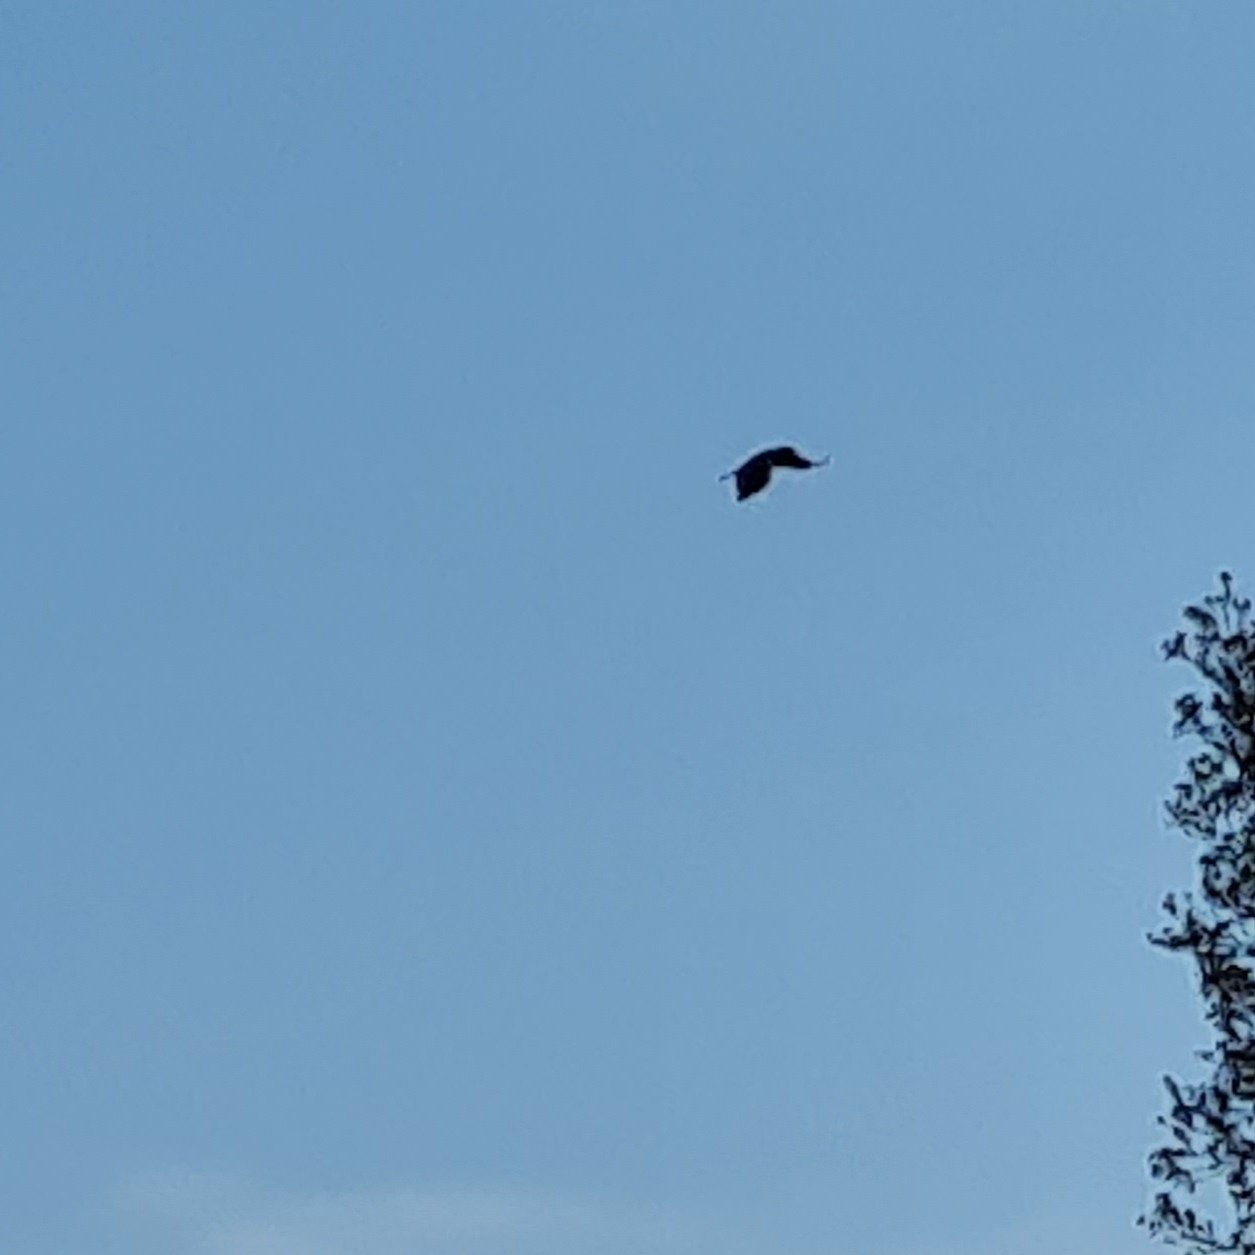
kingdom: Animalia
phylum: Chordata
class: Aves
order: Passeriformes
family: Corvidae
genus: Corvus
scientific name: Corvus corax
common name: Common raven
